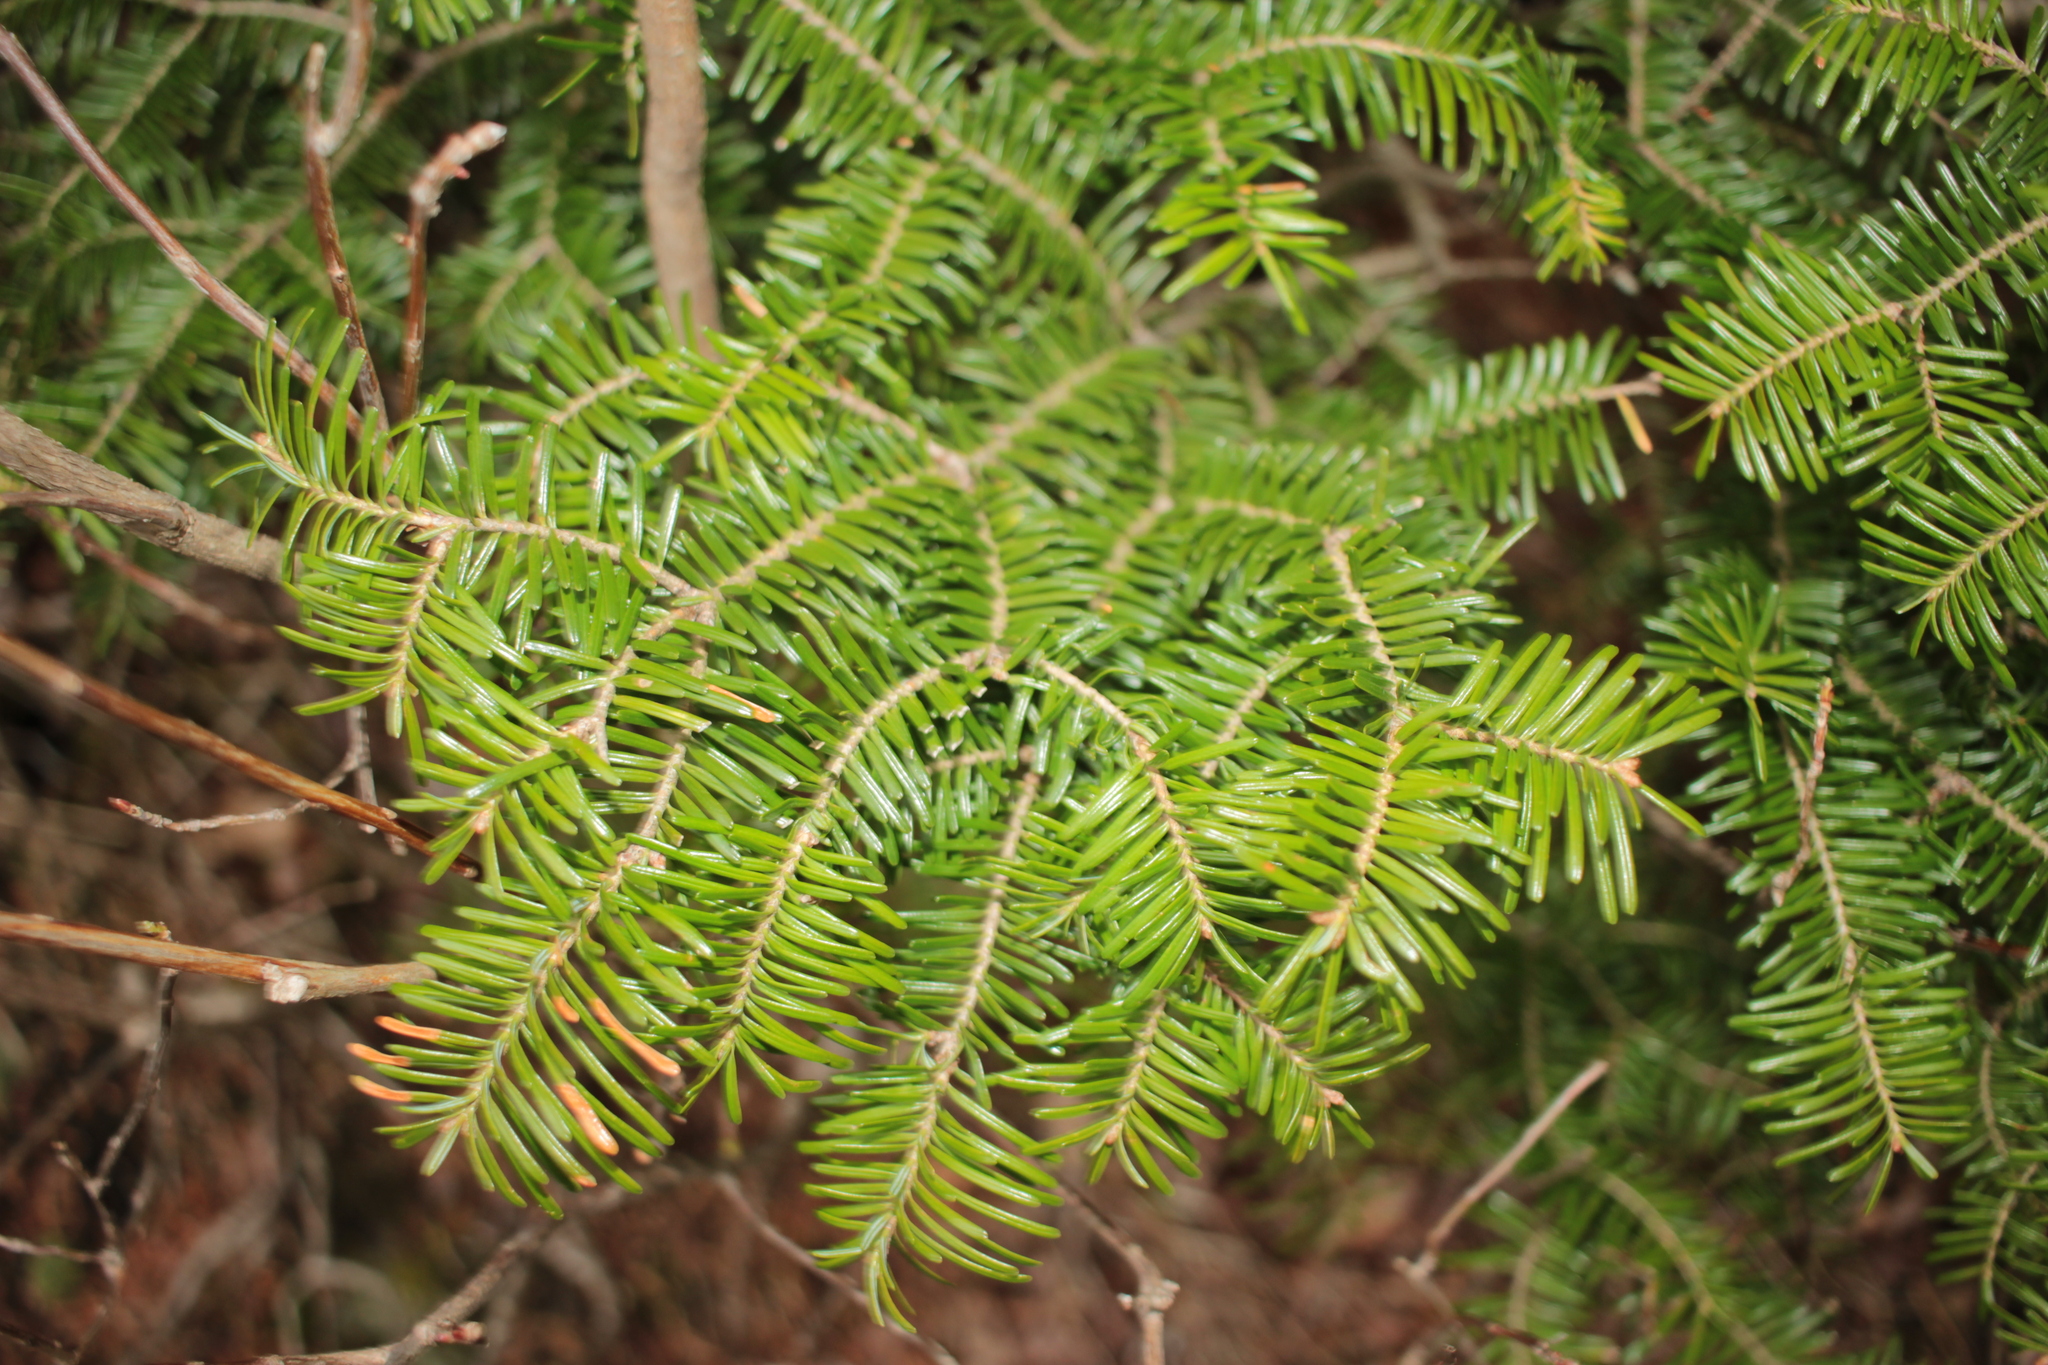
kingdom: Plantae
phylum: Tracheophyta
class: Pinopsida
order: Pinales
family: Pinaceae
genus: Abies
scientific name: Abies fraseri
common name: Fraser fir
